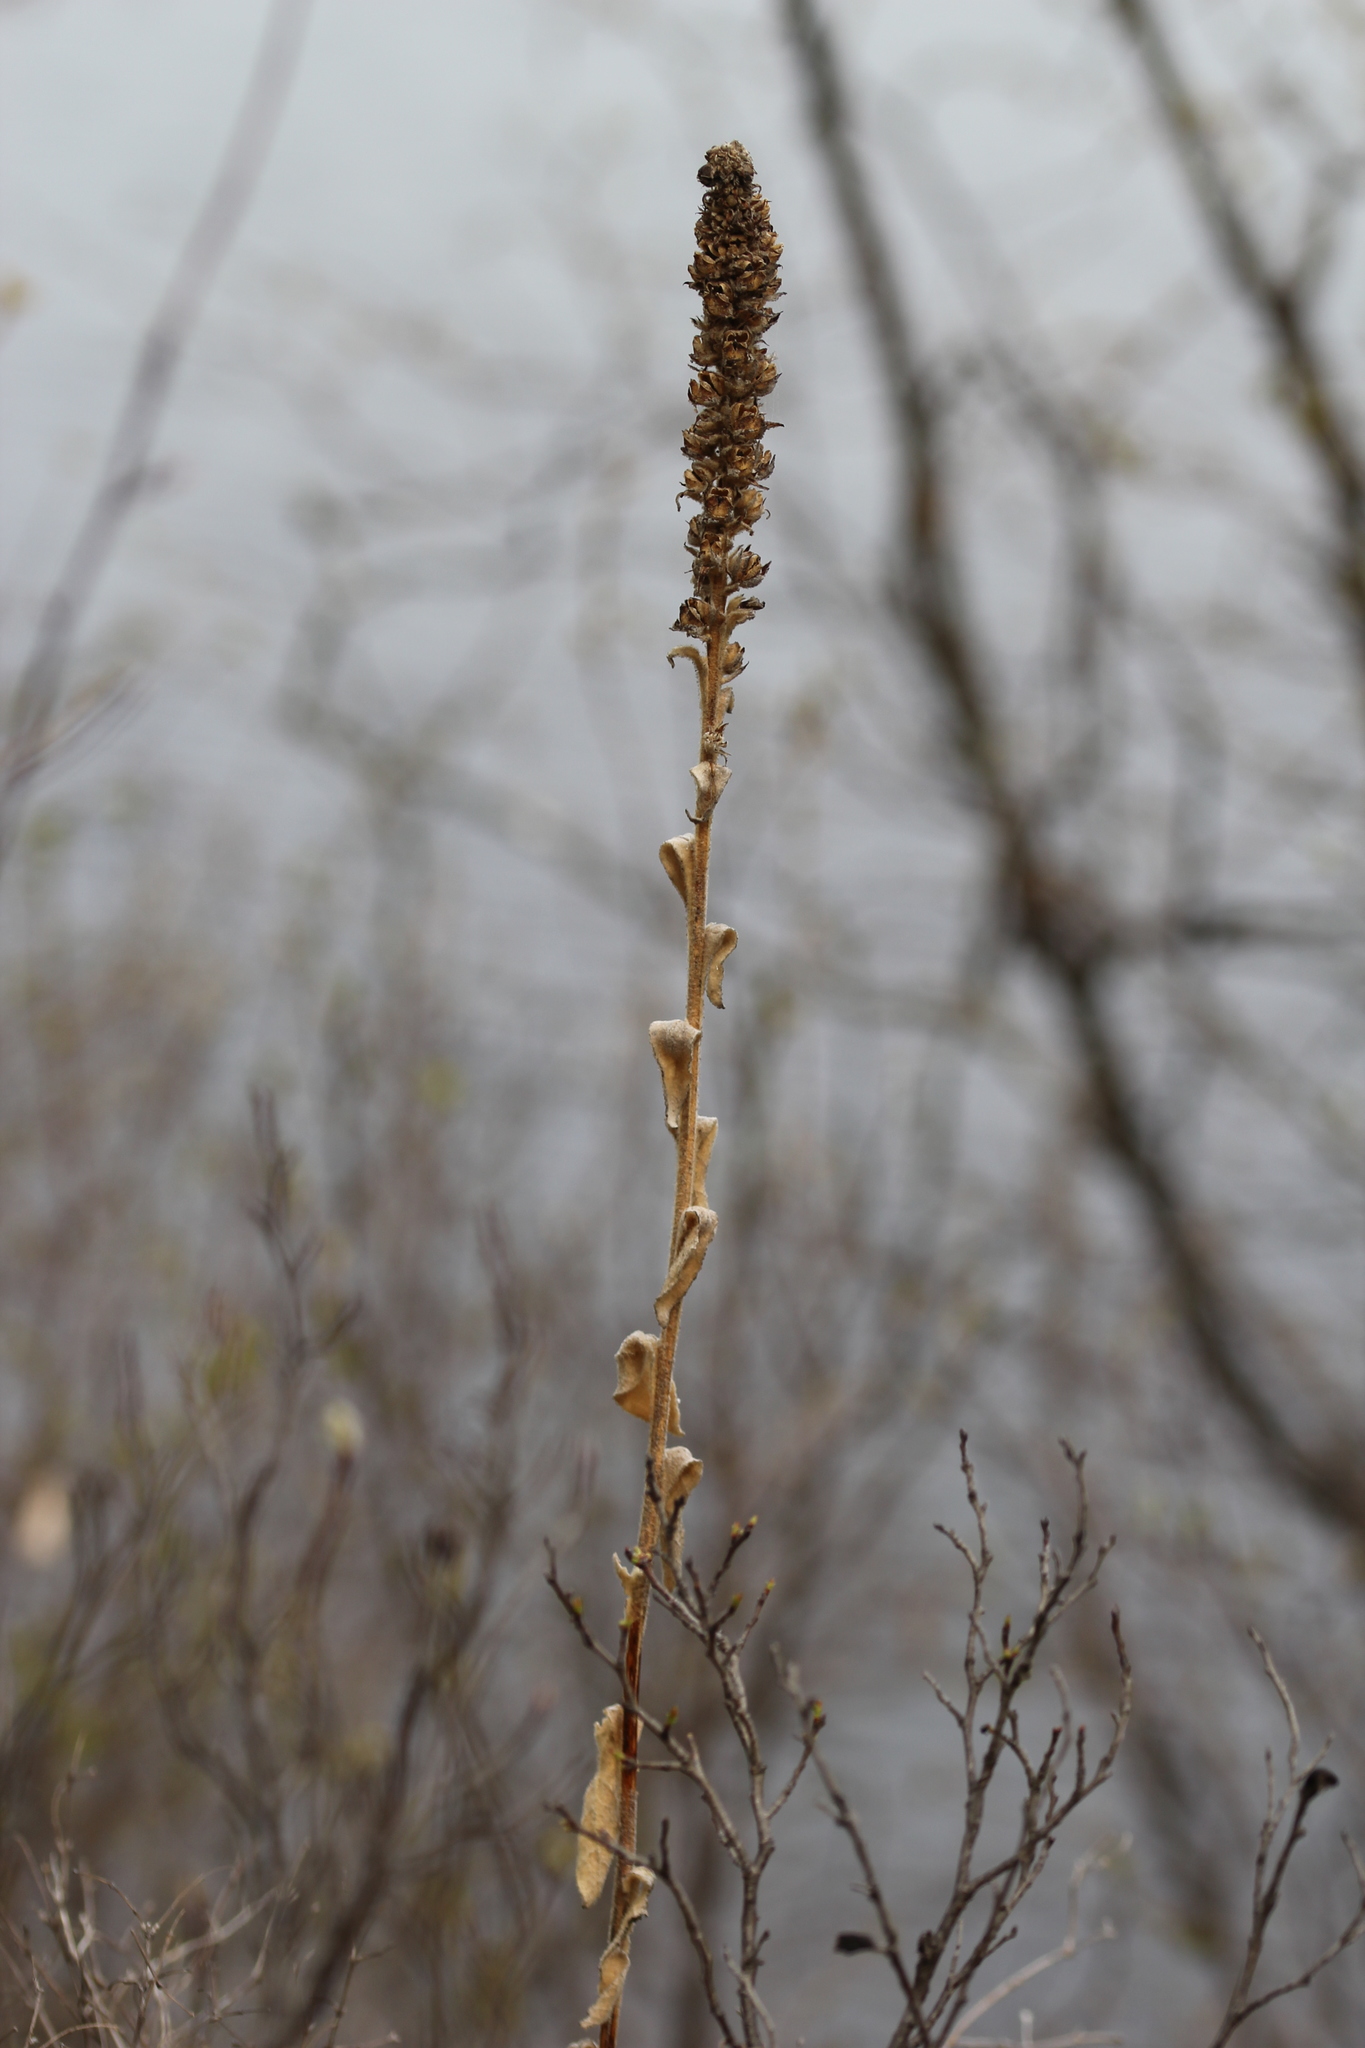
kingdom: Plantae
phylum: Tracheophyta
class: Magnoliopsida
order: Lamiales
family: Scrophulariaceae
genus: Verbascum
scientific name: Verbascum thapsus
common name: Common mullein
